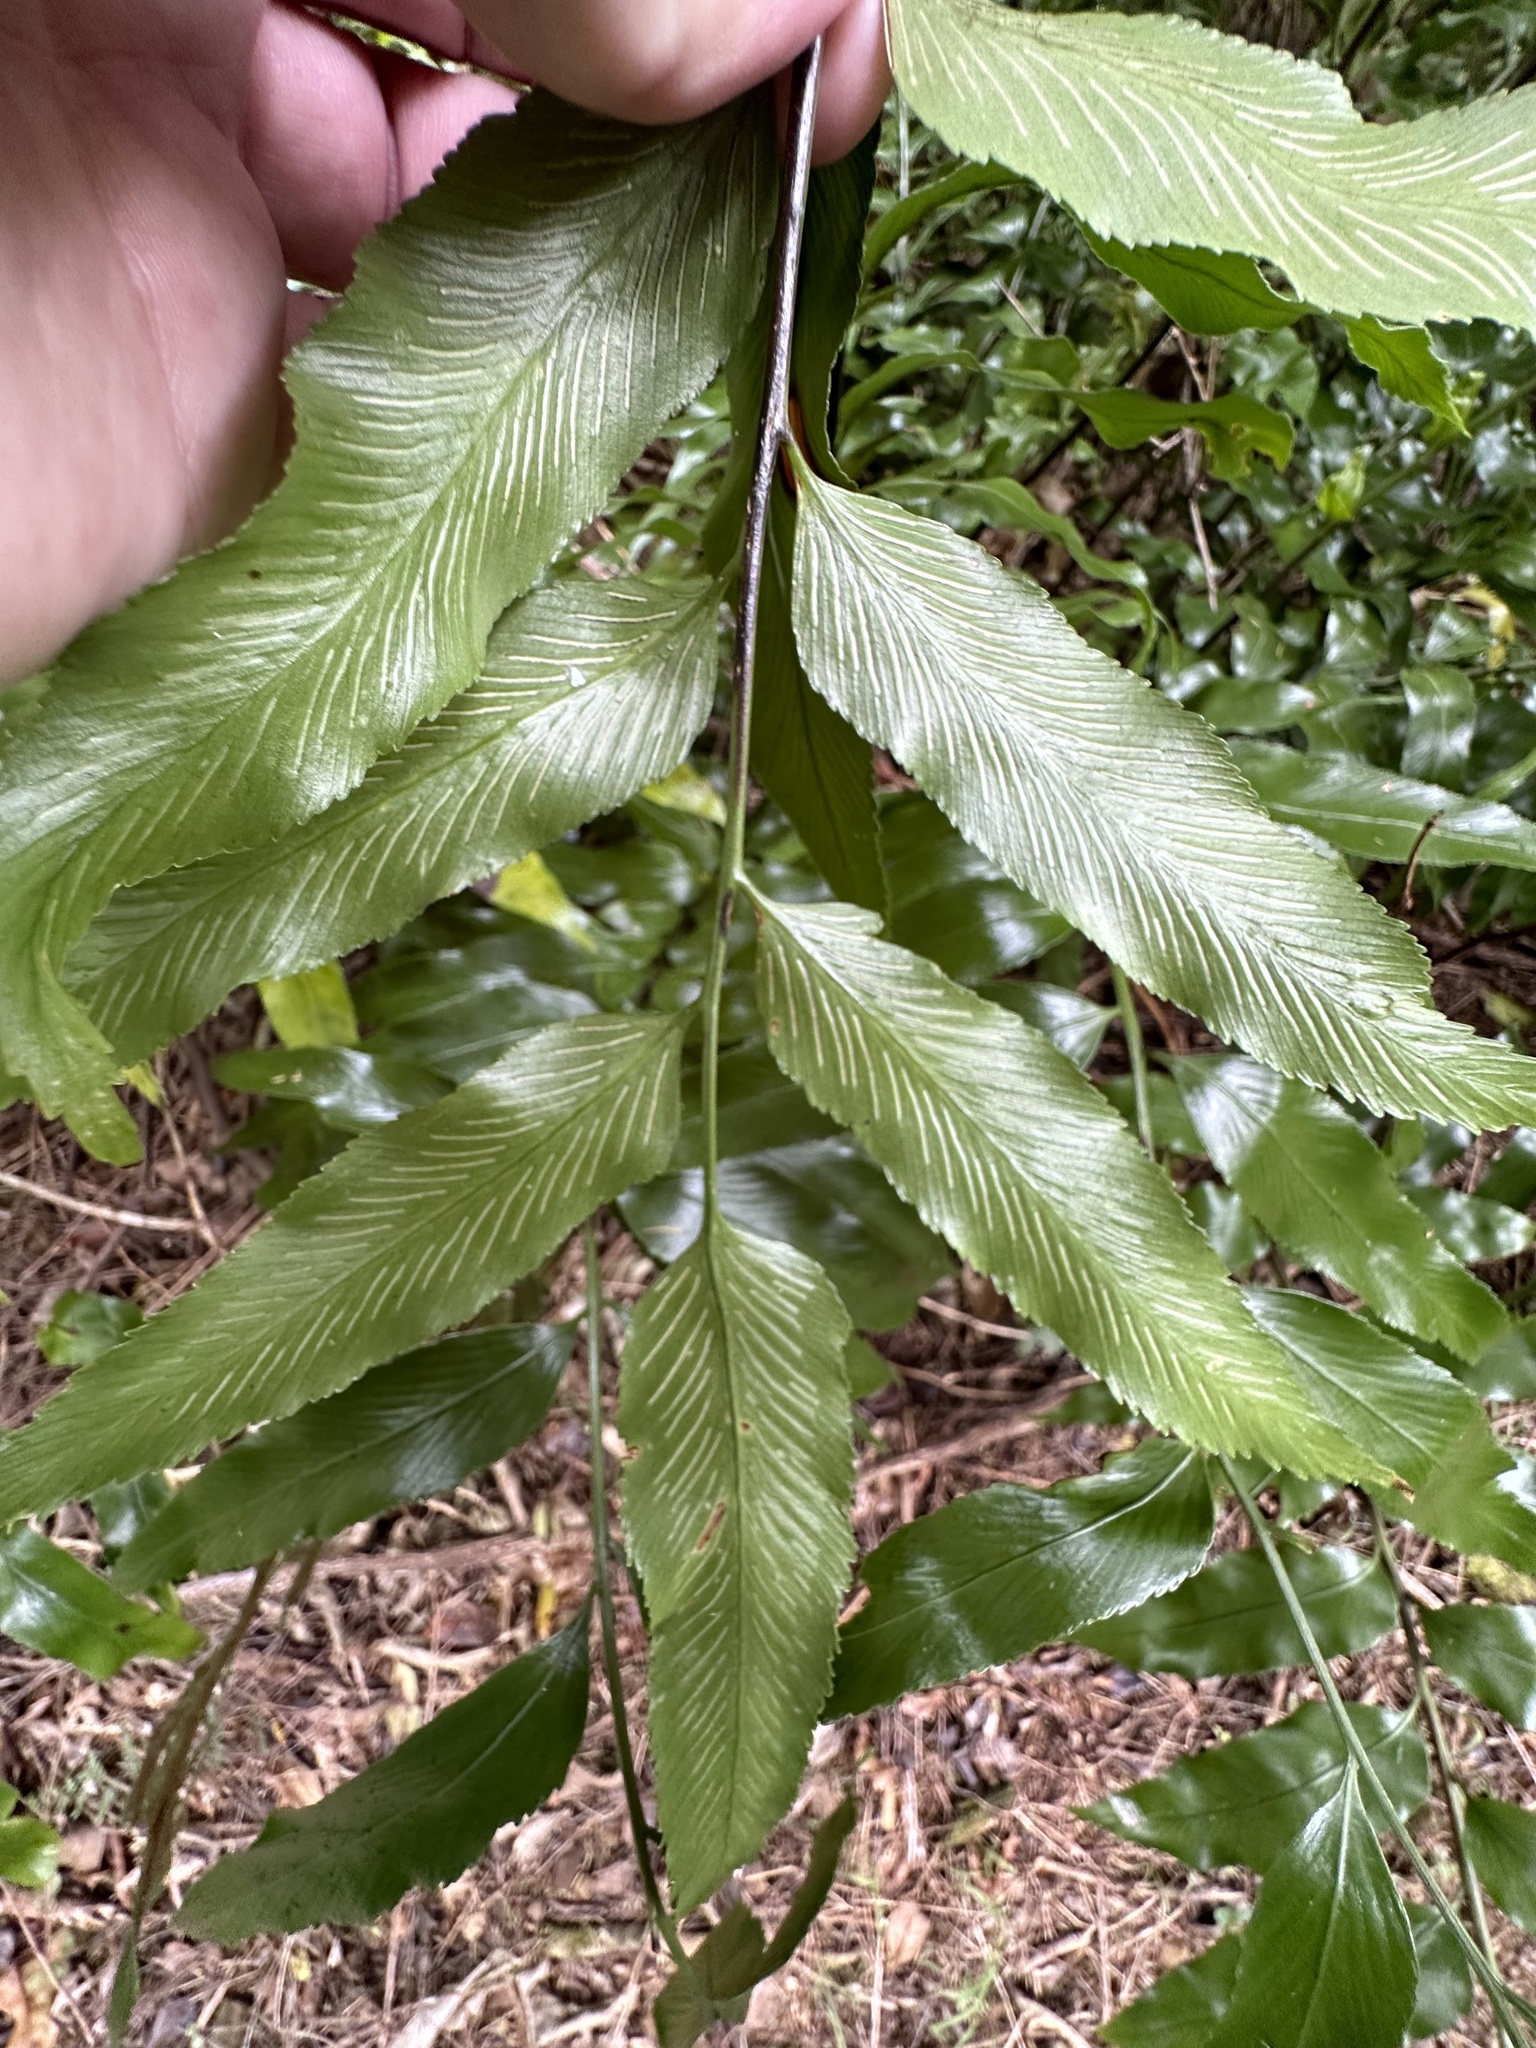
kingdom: Plantae
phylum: Tracheophyta
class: Polypodiopsida
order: Polypodiales
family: Aspleniaceae
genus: Asplenium
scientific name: Asplenium oblongifolium
